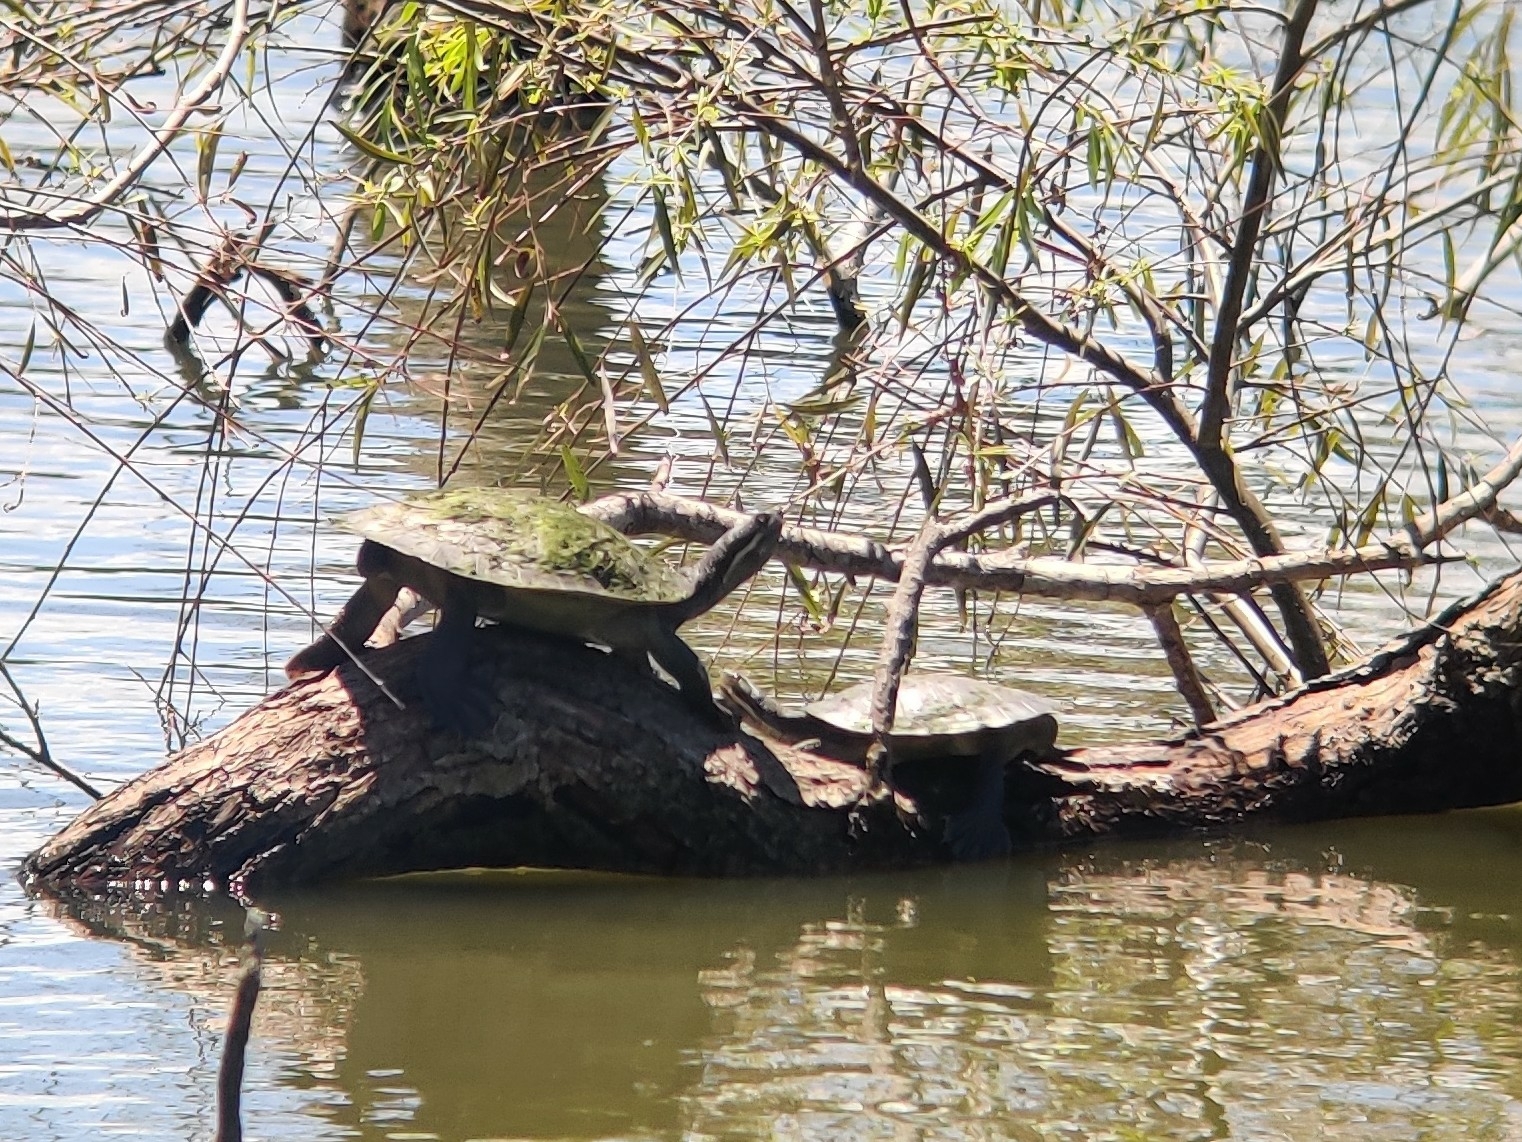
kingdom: Animalia
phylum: Chordata
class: Testudines
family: Chelidae
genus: Emydura
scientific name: Emydura macquarii
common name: Murray river turtle
